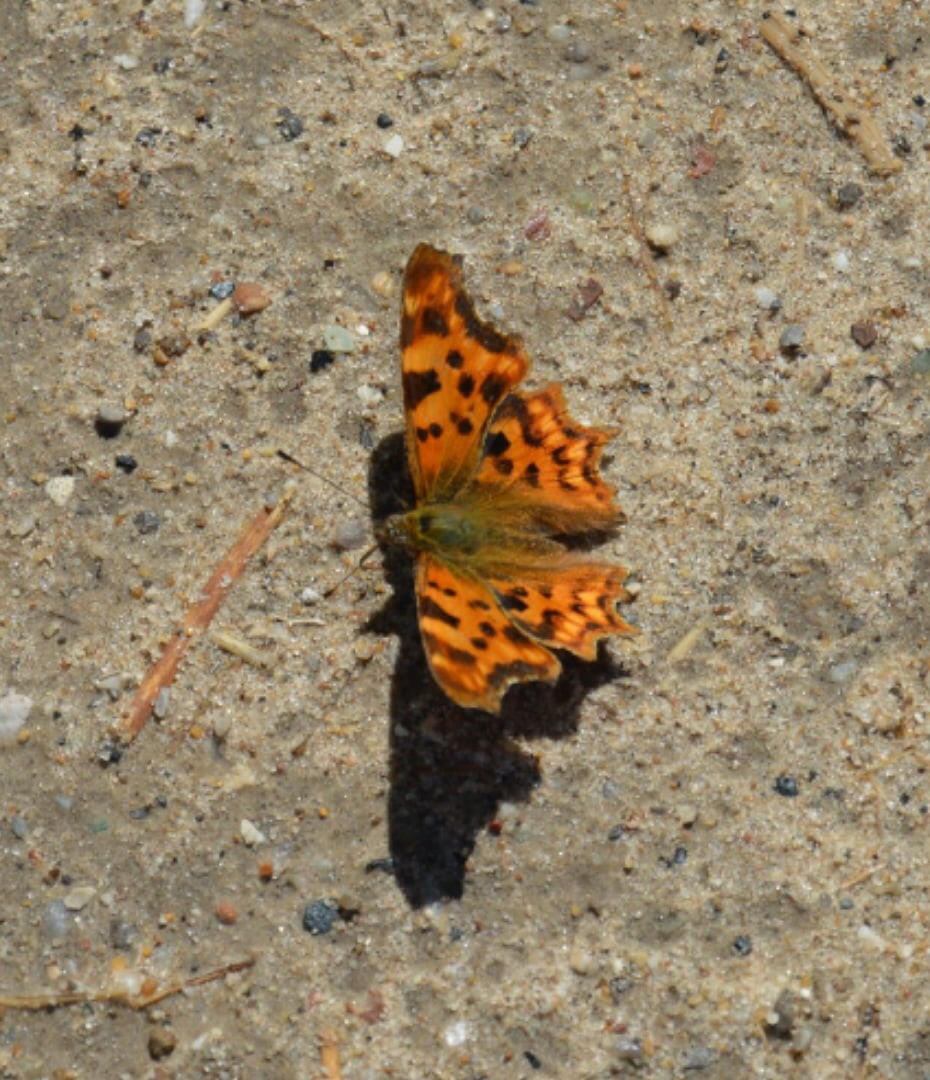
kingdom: Animalia
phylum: Arthropoda
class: Insecta
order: Lepidoptera
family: Nymphalidae
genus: Polygonia
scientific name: Polygonia c-album
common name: Comma
